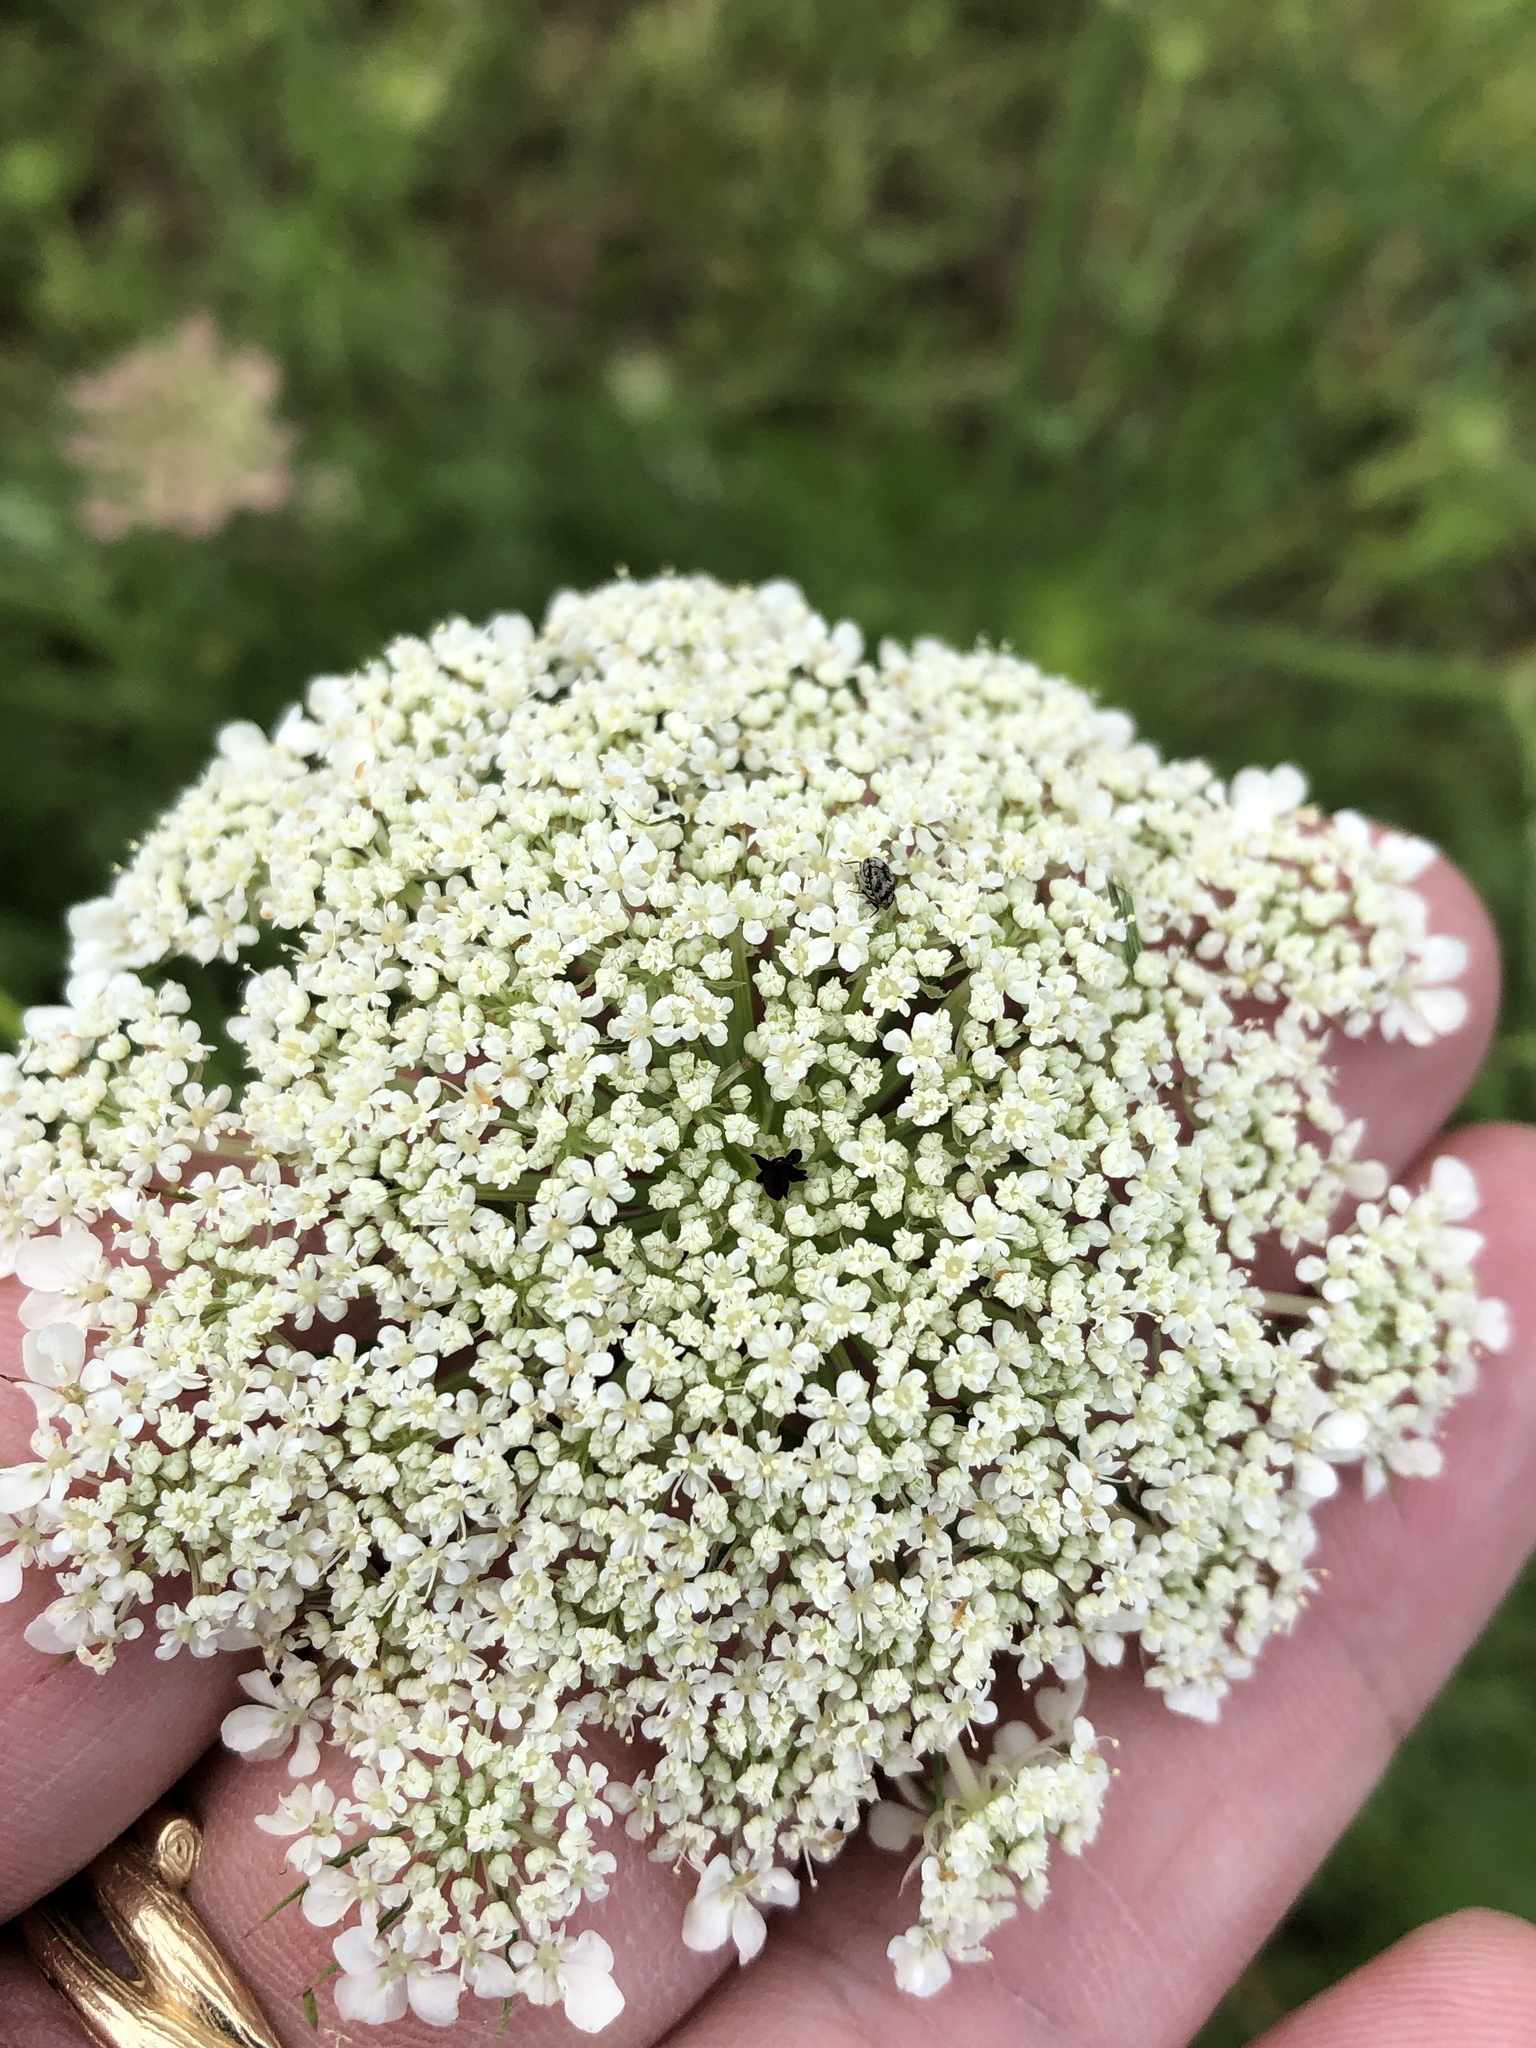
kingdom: Plantae
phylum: Tracheophyta
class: Magnoliopsida
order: Apiales
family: Apiaceae
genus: Daucus
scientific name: Daucus carota
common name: Wild carrot
